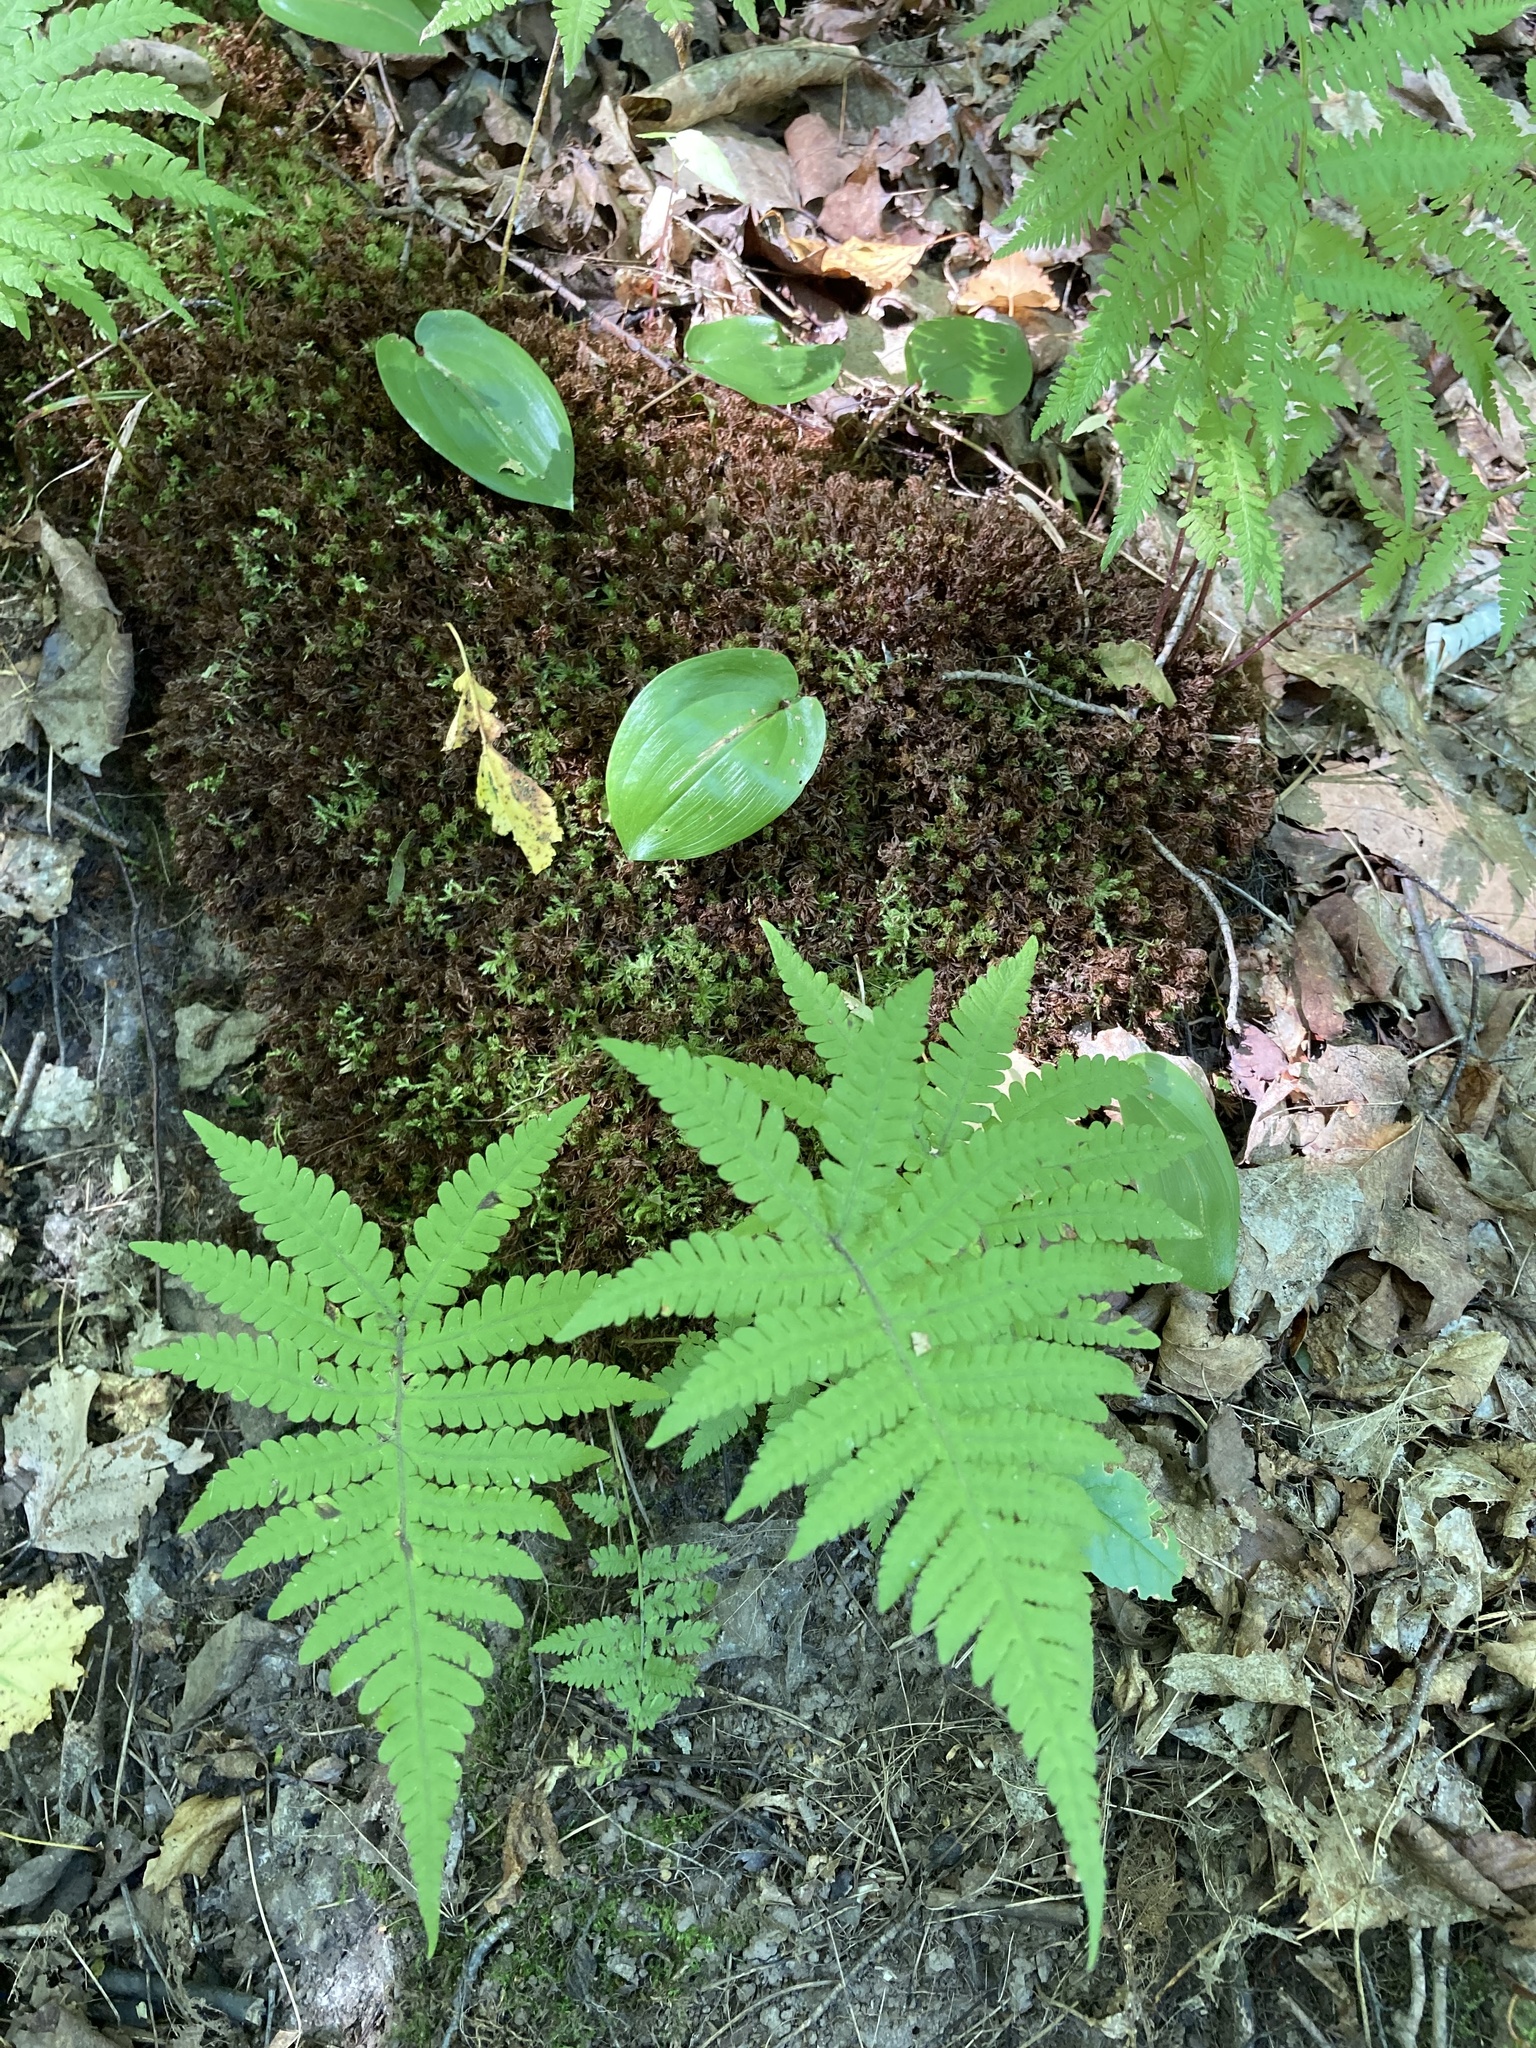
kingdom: Plantae
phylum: Tracheophyta
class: Polypodiopsida
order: Polypodiales
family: Thelypteridaceae
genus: Phegopteris
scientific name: Phegopteris connectilis
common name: Beech fern
